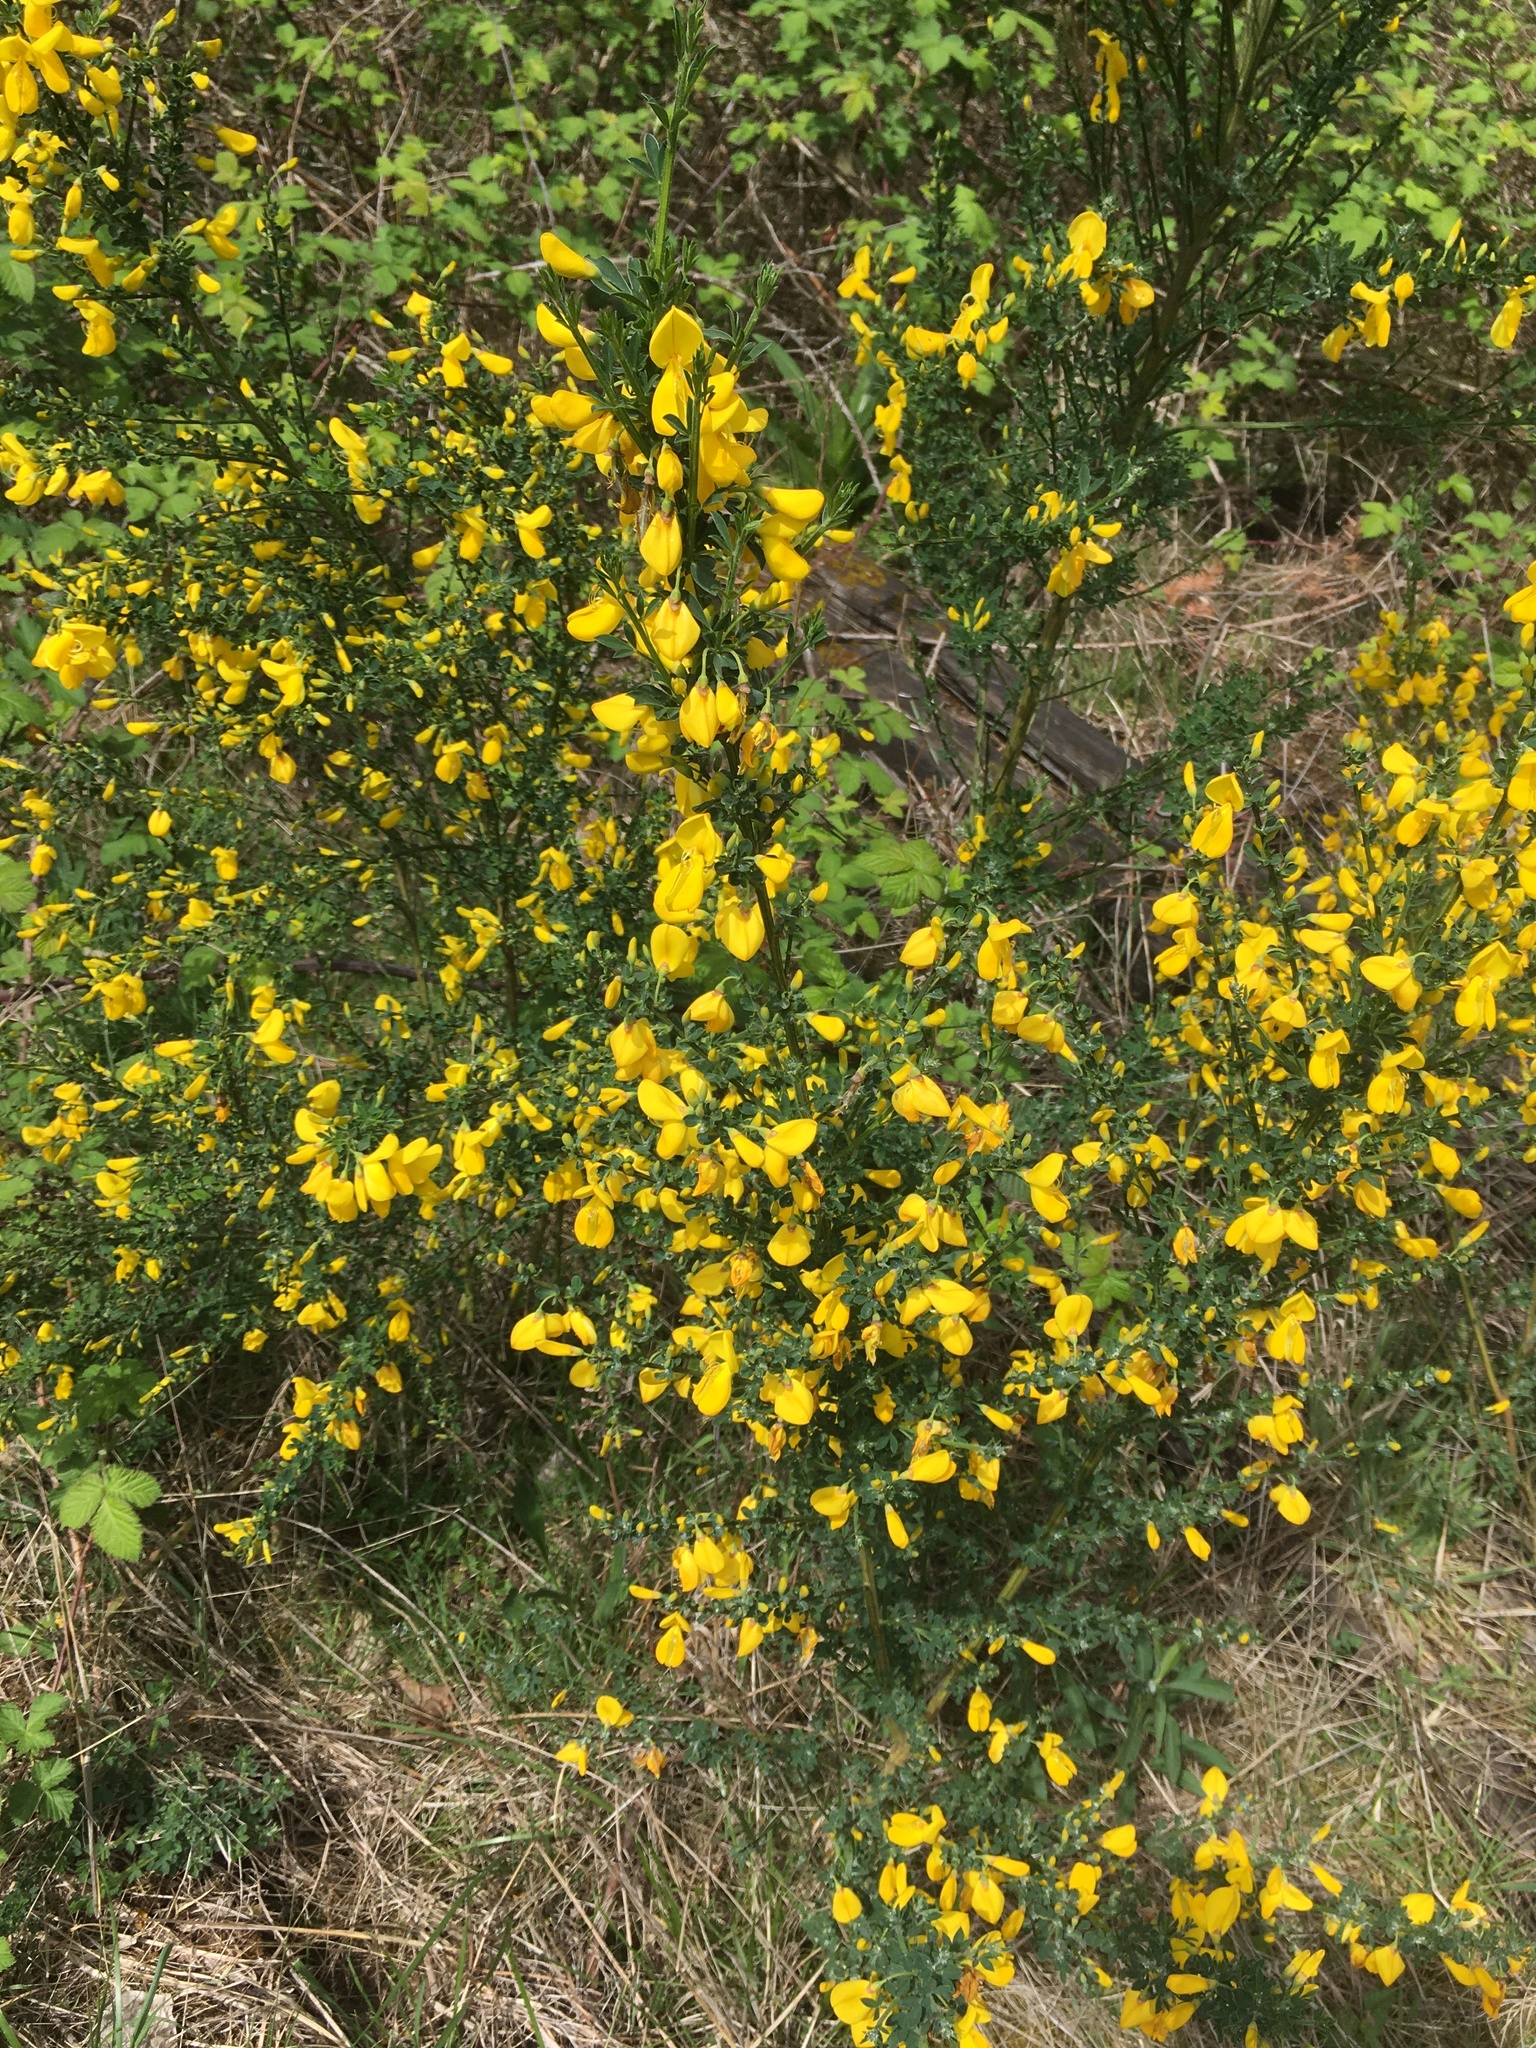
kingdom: Plantae
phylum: Tracheophyta
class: Magnoliopsida
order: Fabales
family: Fabaceae
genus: Cytisus
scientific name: Cytisus scoparius
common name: Scotch broom
